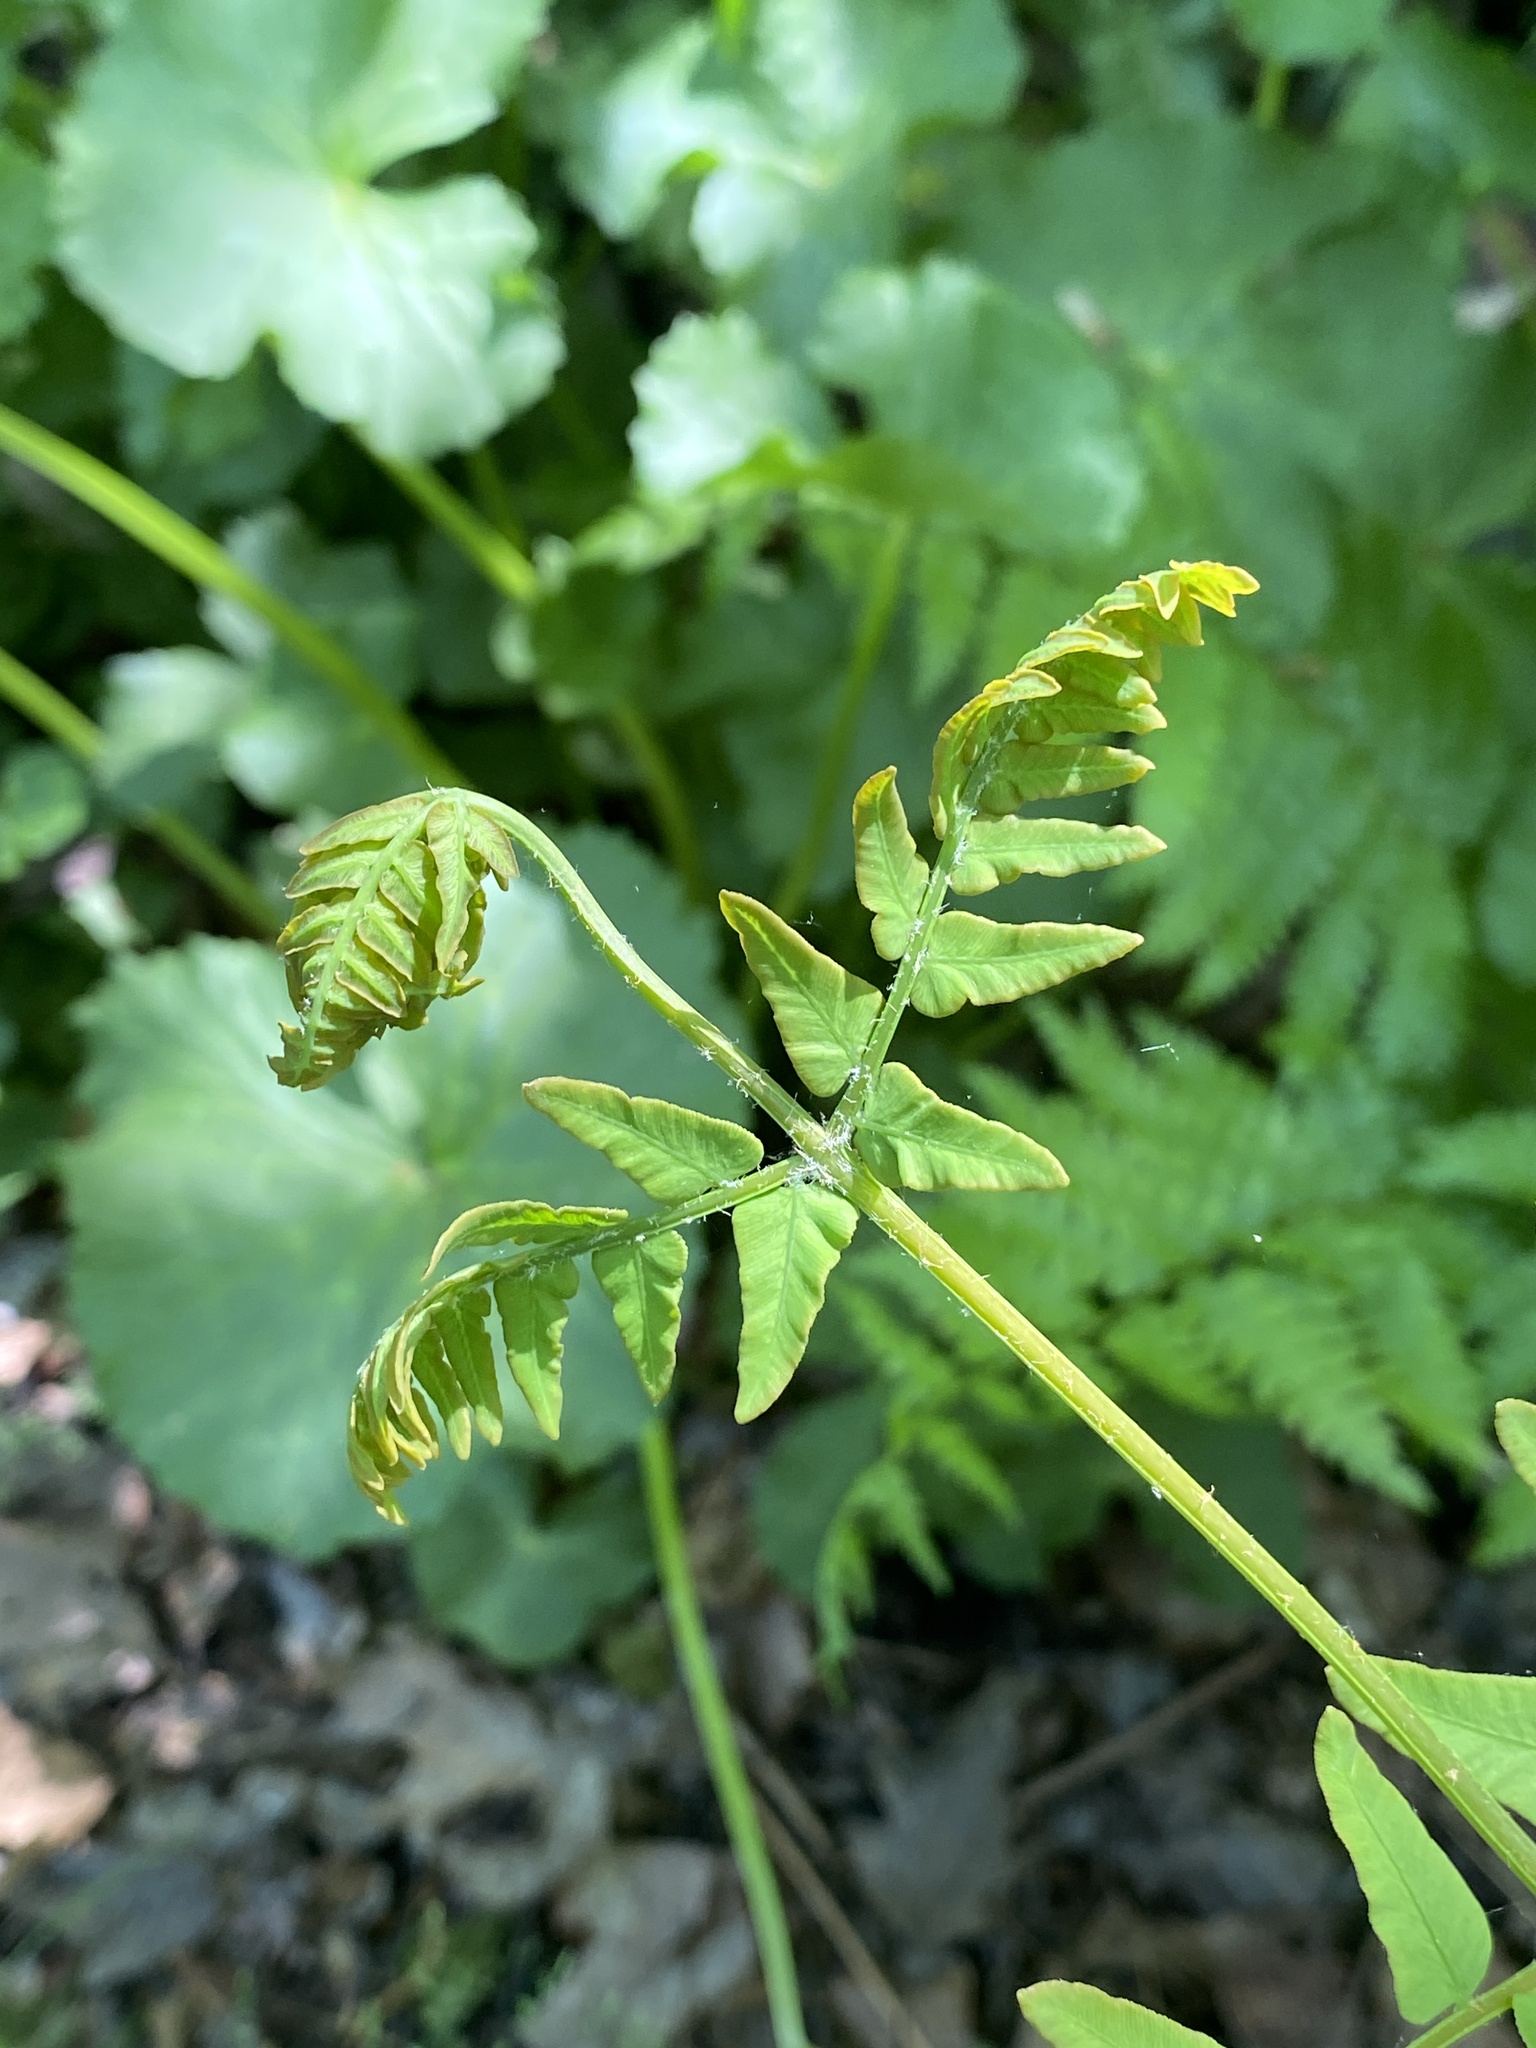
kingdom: Plantae
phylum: Tracheophyta
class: Polypodiopsida
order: Osmundales
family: Osmundaceae
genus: Osmunda
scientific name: Osmunda spectabilis
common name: American royal fern
